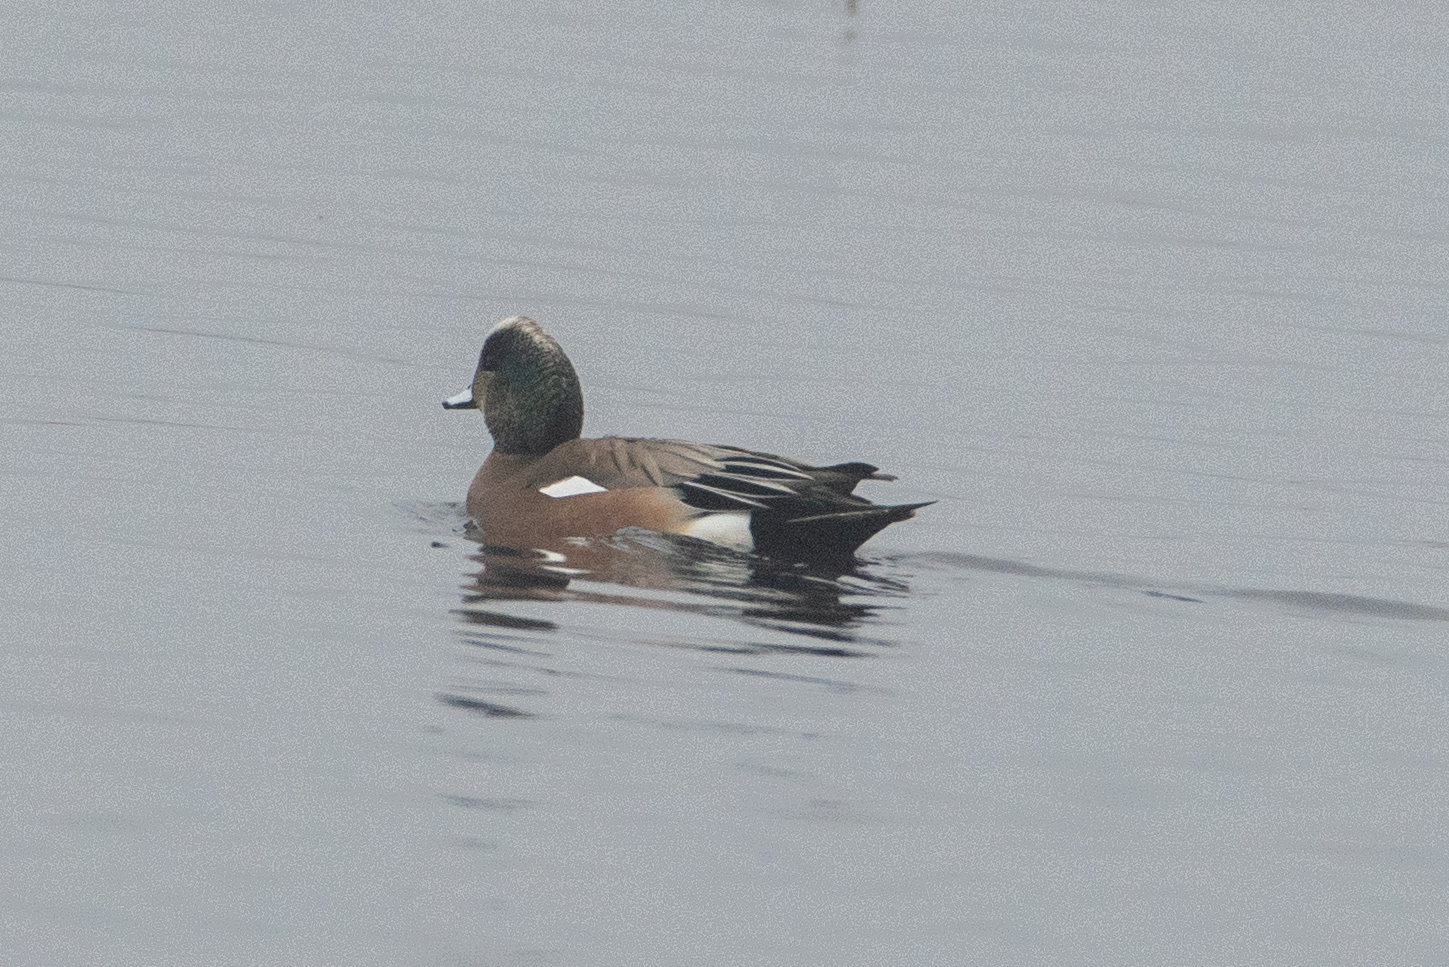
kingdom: Animalia
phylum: Chordata
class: Aves
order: Anseriformes
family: Anatidae
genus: Mareca
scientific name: Mareca americana
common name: American wigeon
